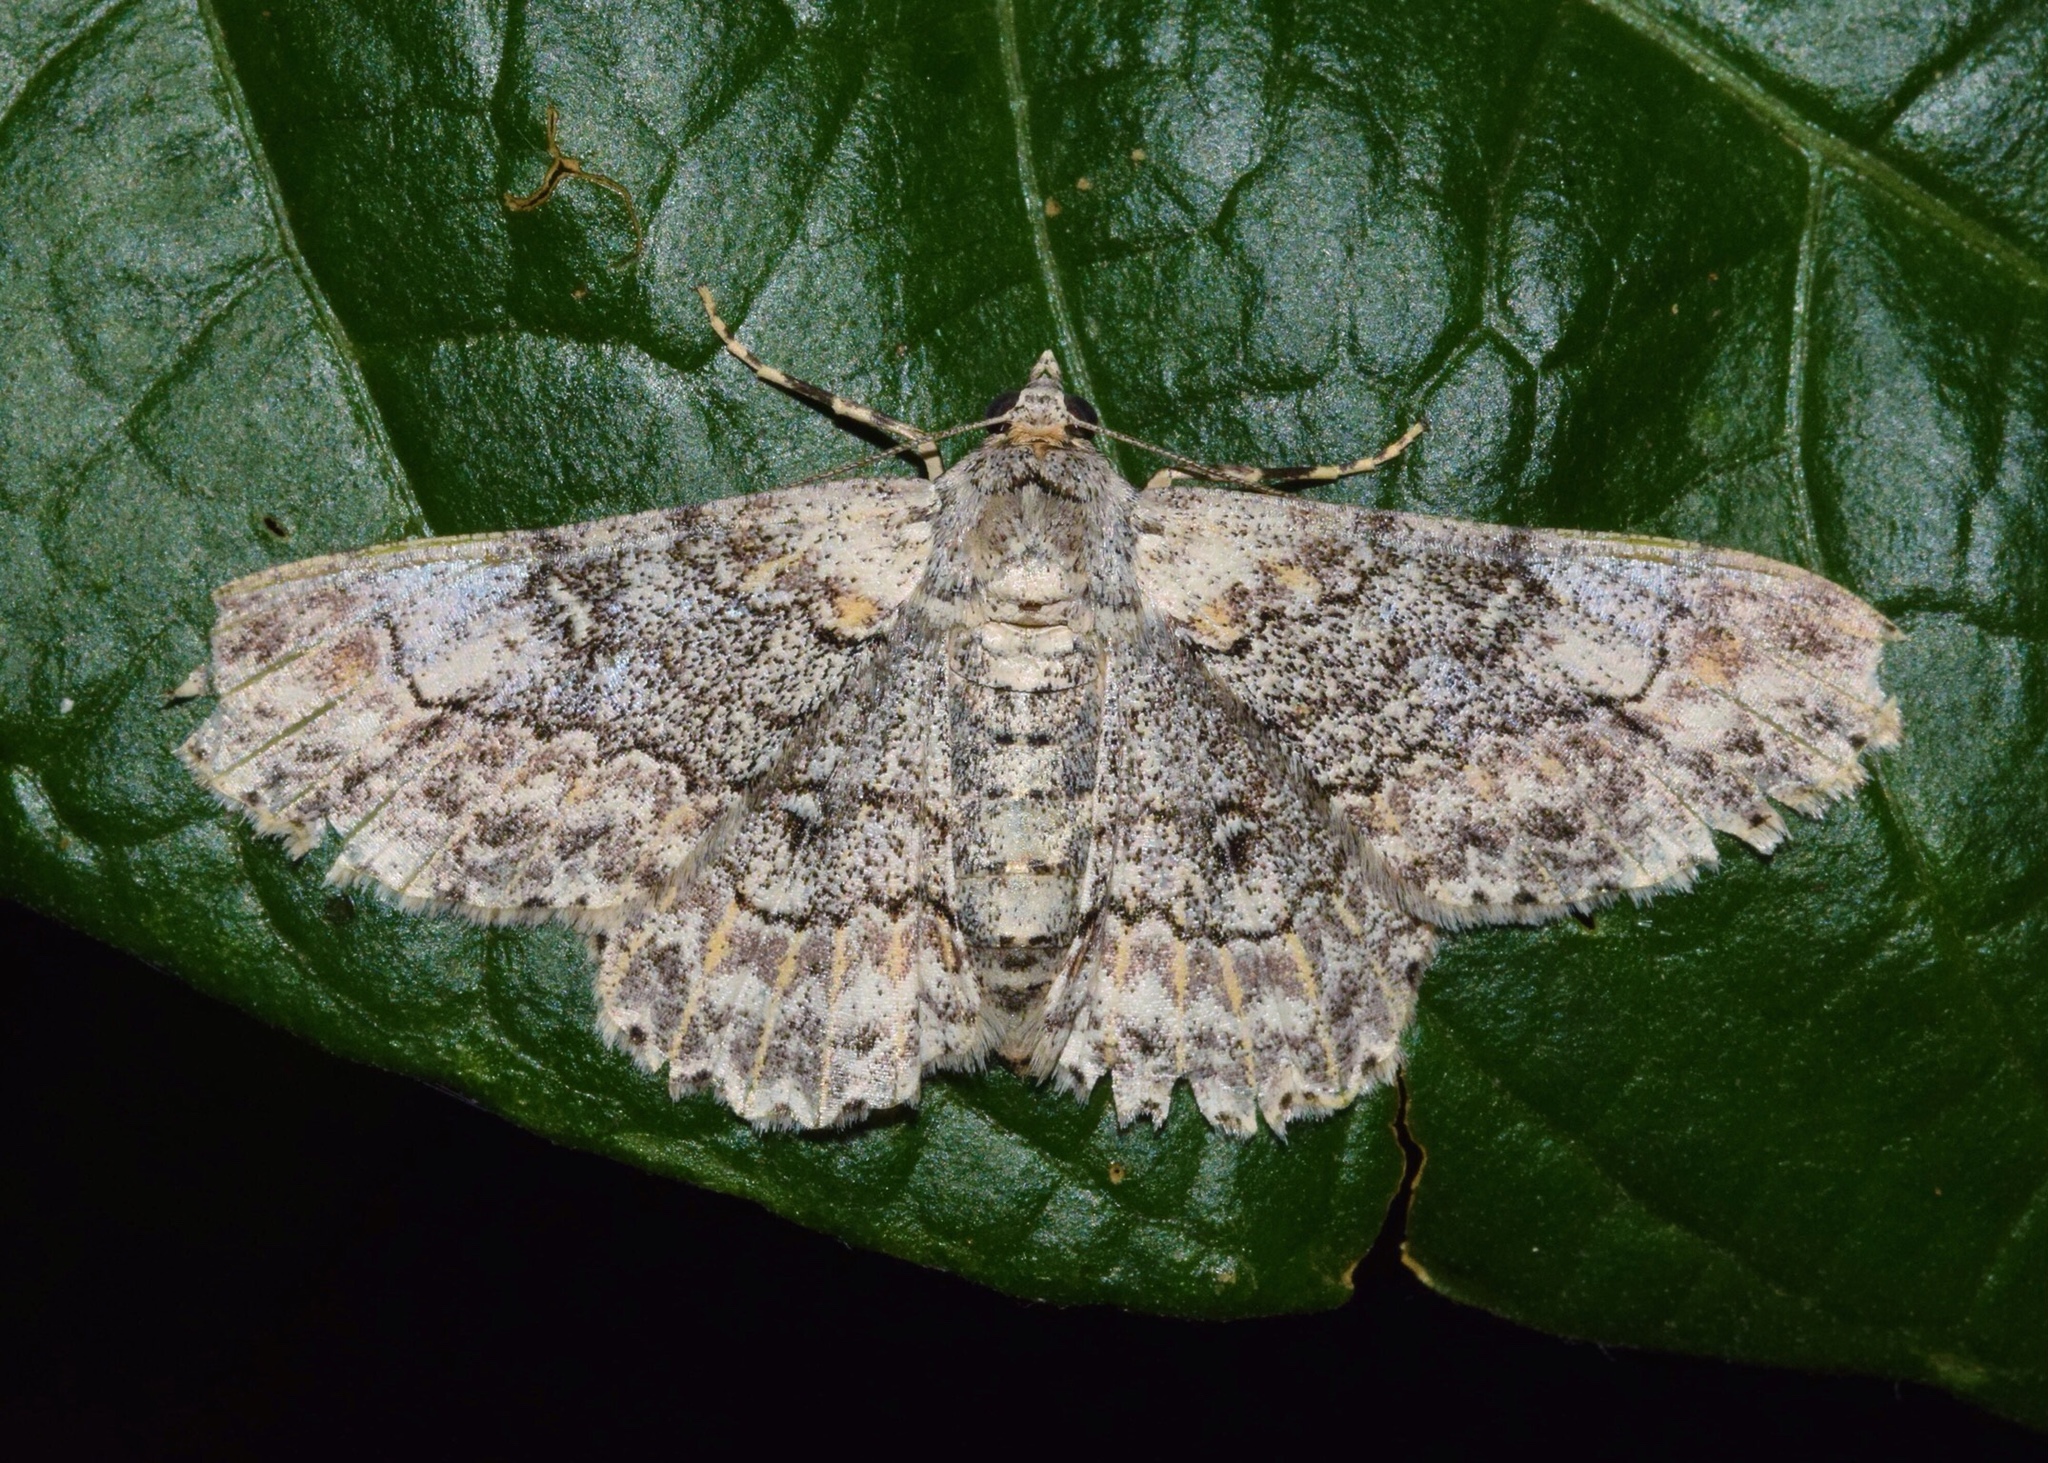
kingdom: Animalia
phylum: Arthropoda
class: Insecta
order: Lepidoptera
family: Geometridae
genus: Cleora
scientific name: Cleora munda
